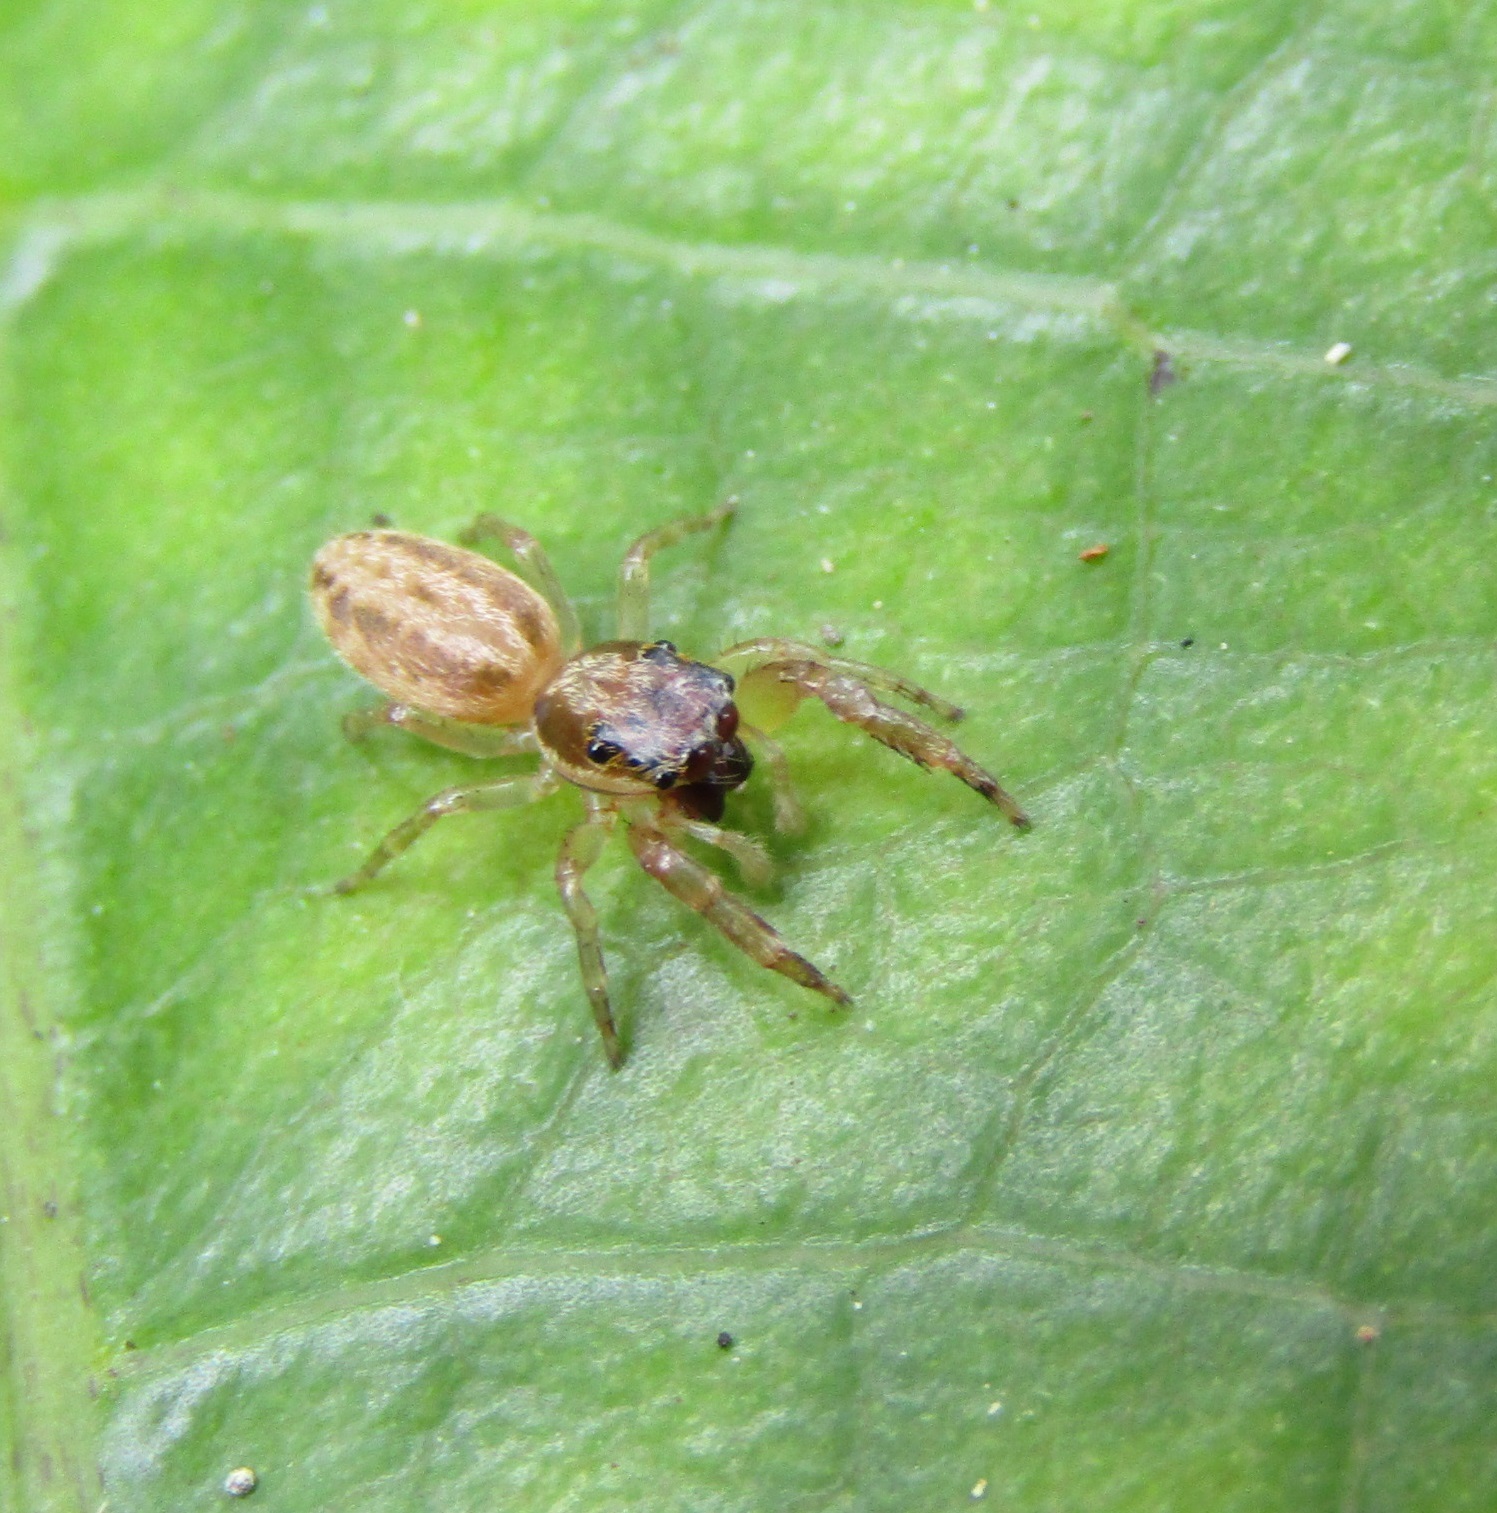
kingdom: Animalia
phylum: Arthropoda
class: Arachnida
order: Araneae
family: Salticidae
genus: Trite
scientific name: Trite mustilina
